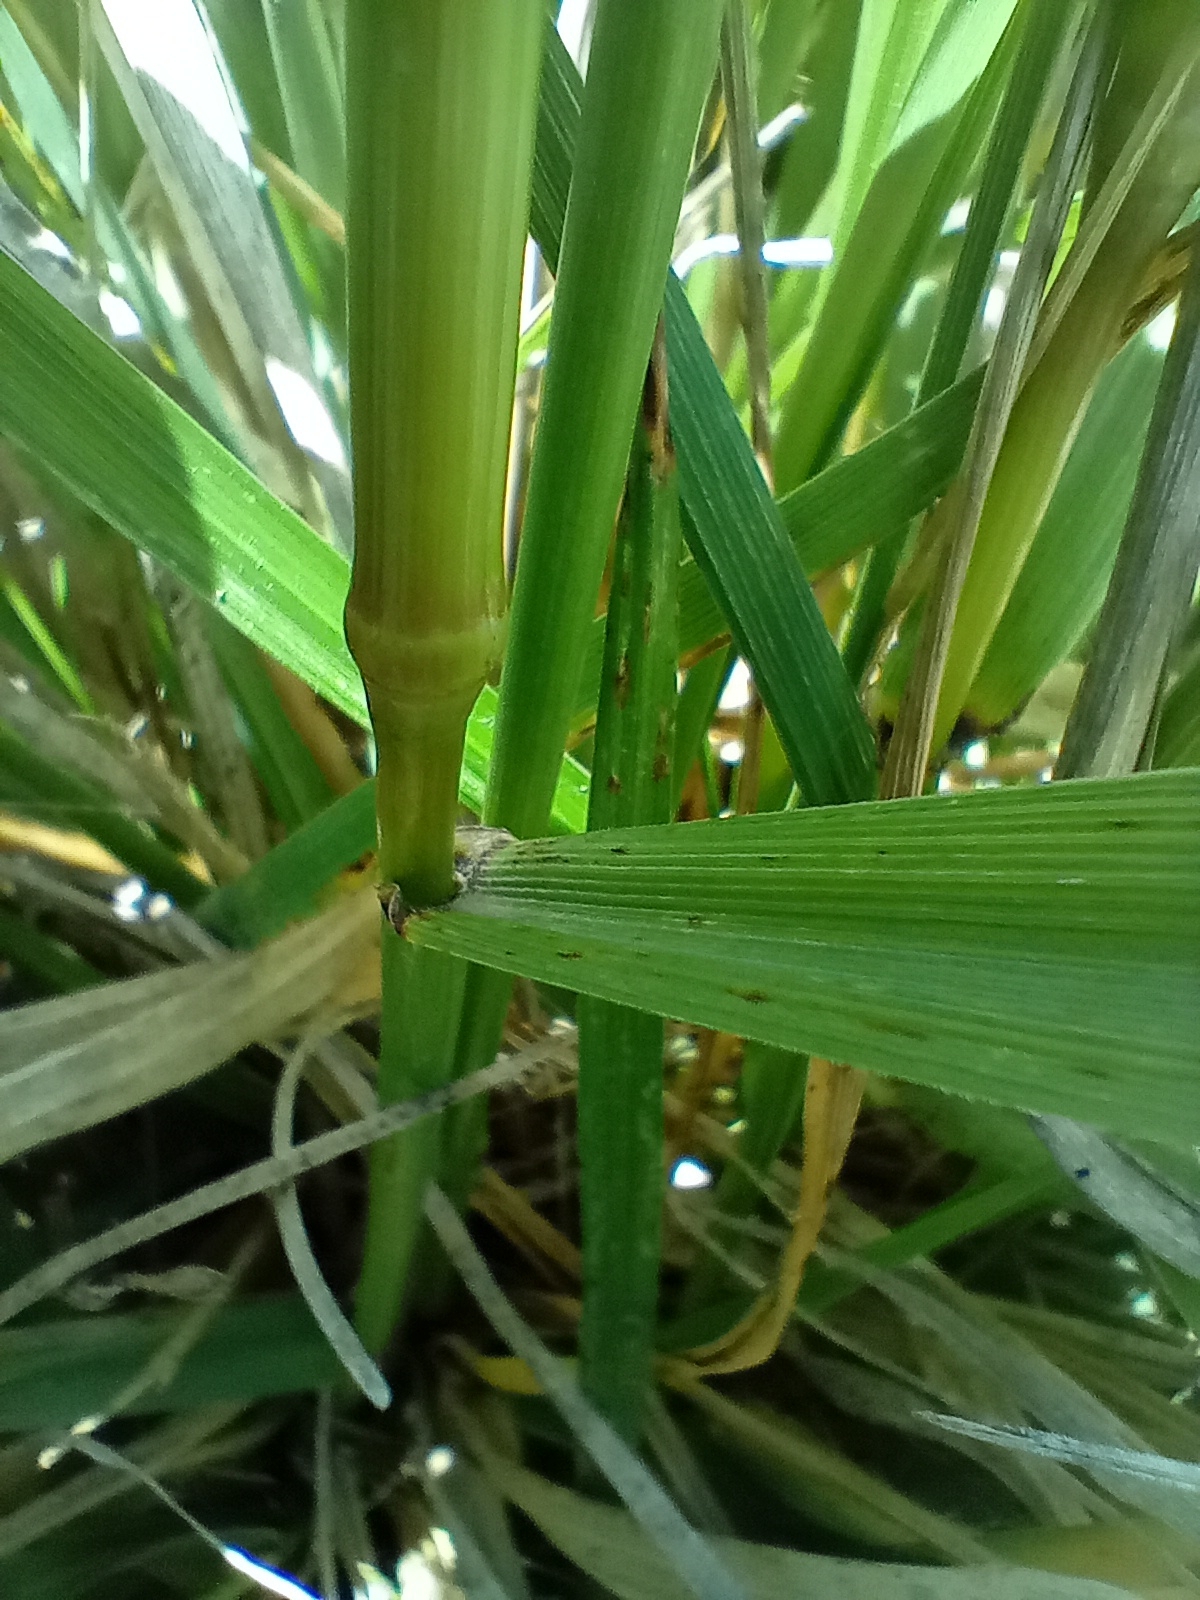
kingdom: Plantae
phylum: Tracheophyta
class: Liliopsida
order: Poales
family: Poaceae
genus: Lolium
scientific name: Lolium arundinaceum
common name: Reed fescue
